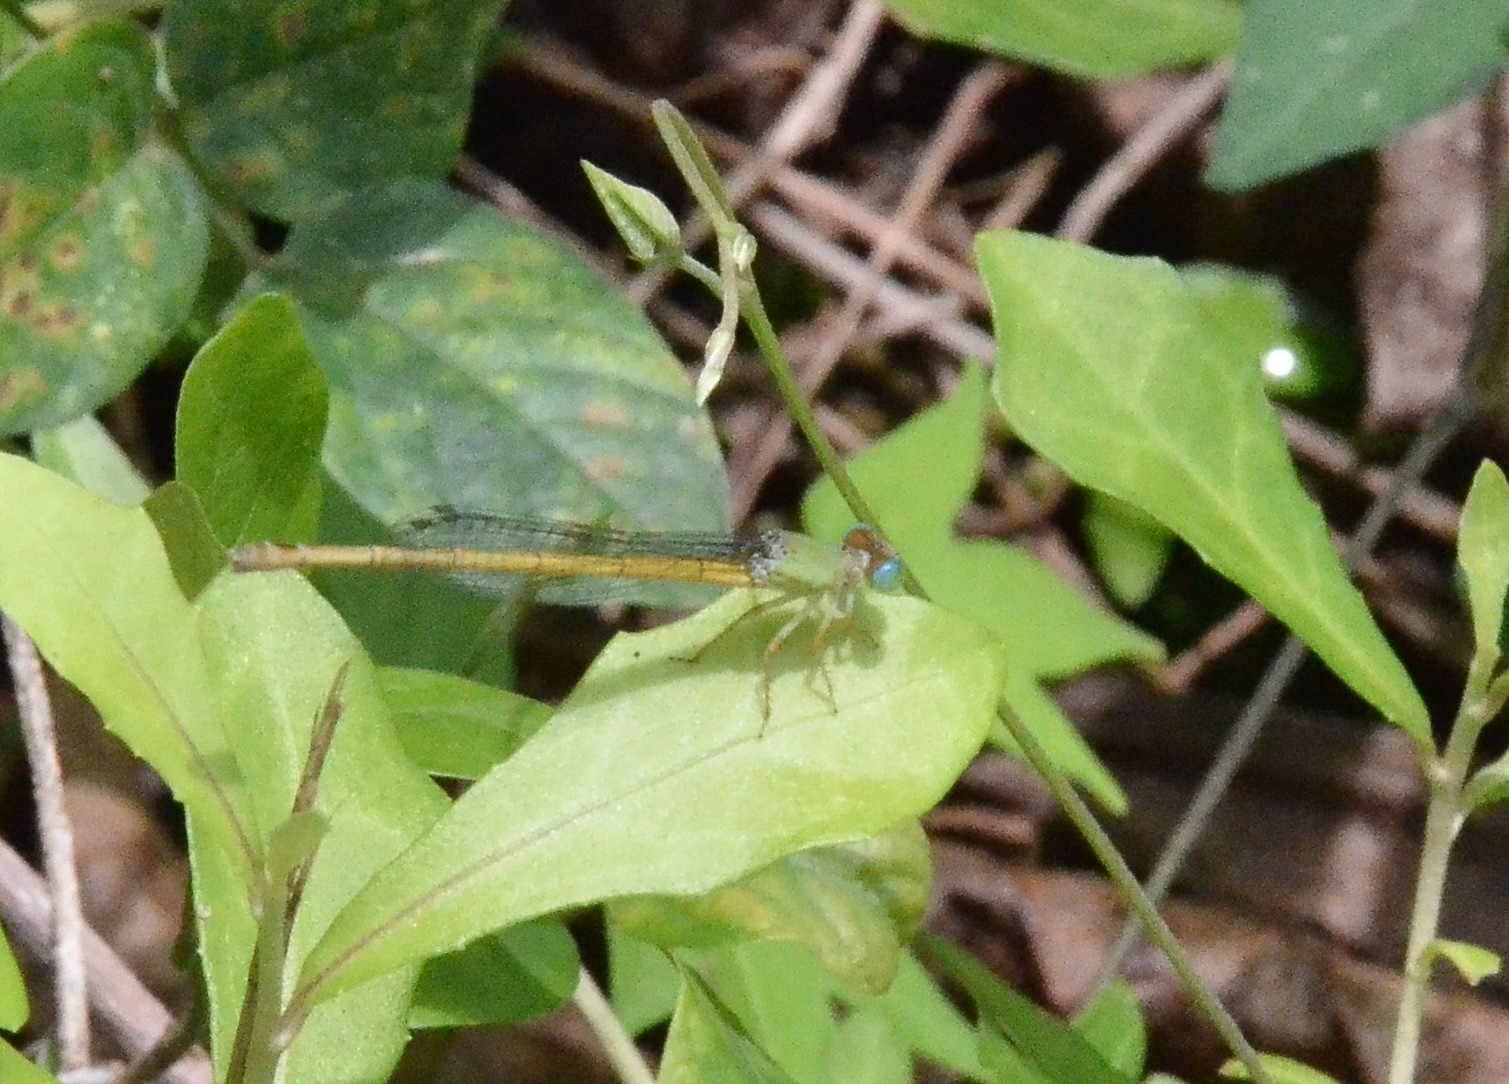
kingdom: Animalia
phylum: Arthropoda
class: Insecta
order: Odonata
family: Coenagrionidae
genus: Ceriagrion
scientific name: Ceriagrion coromandelianum
